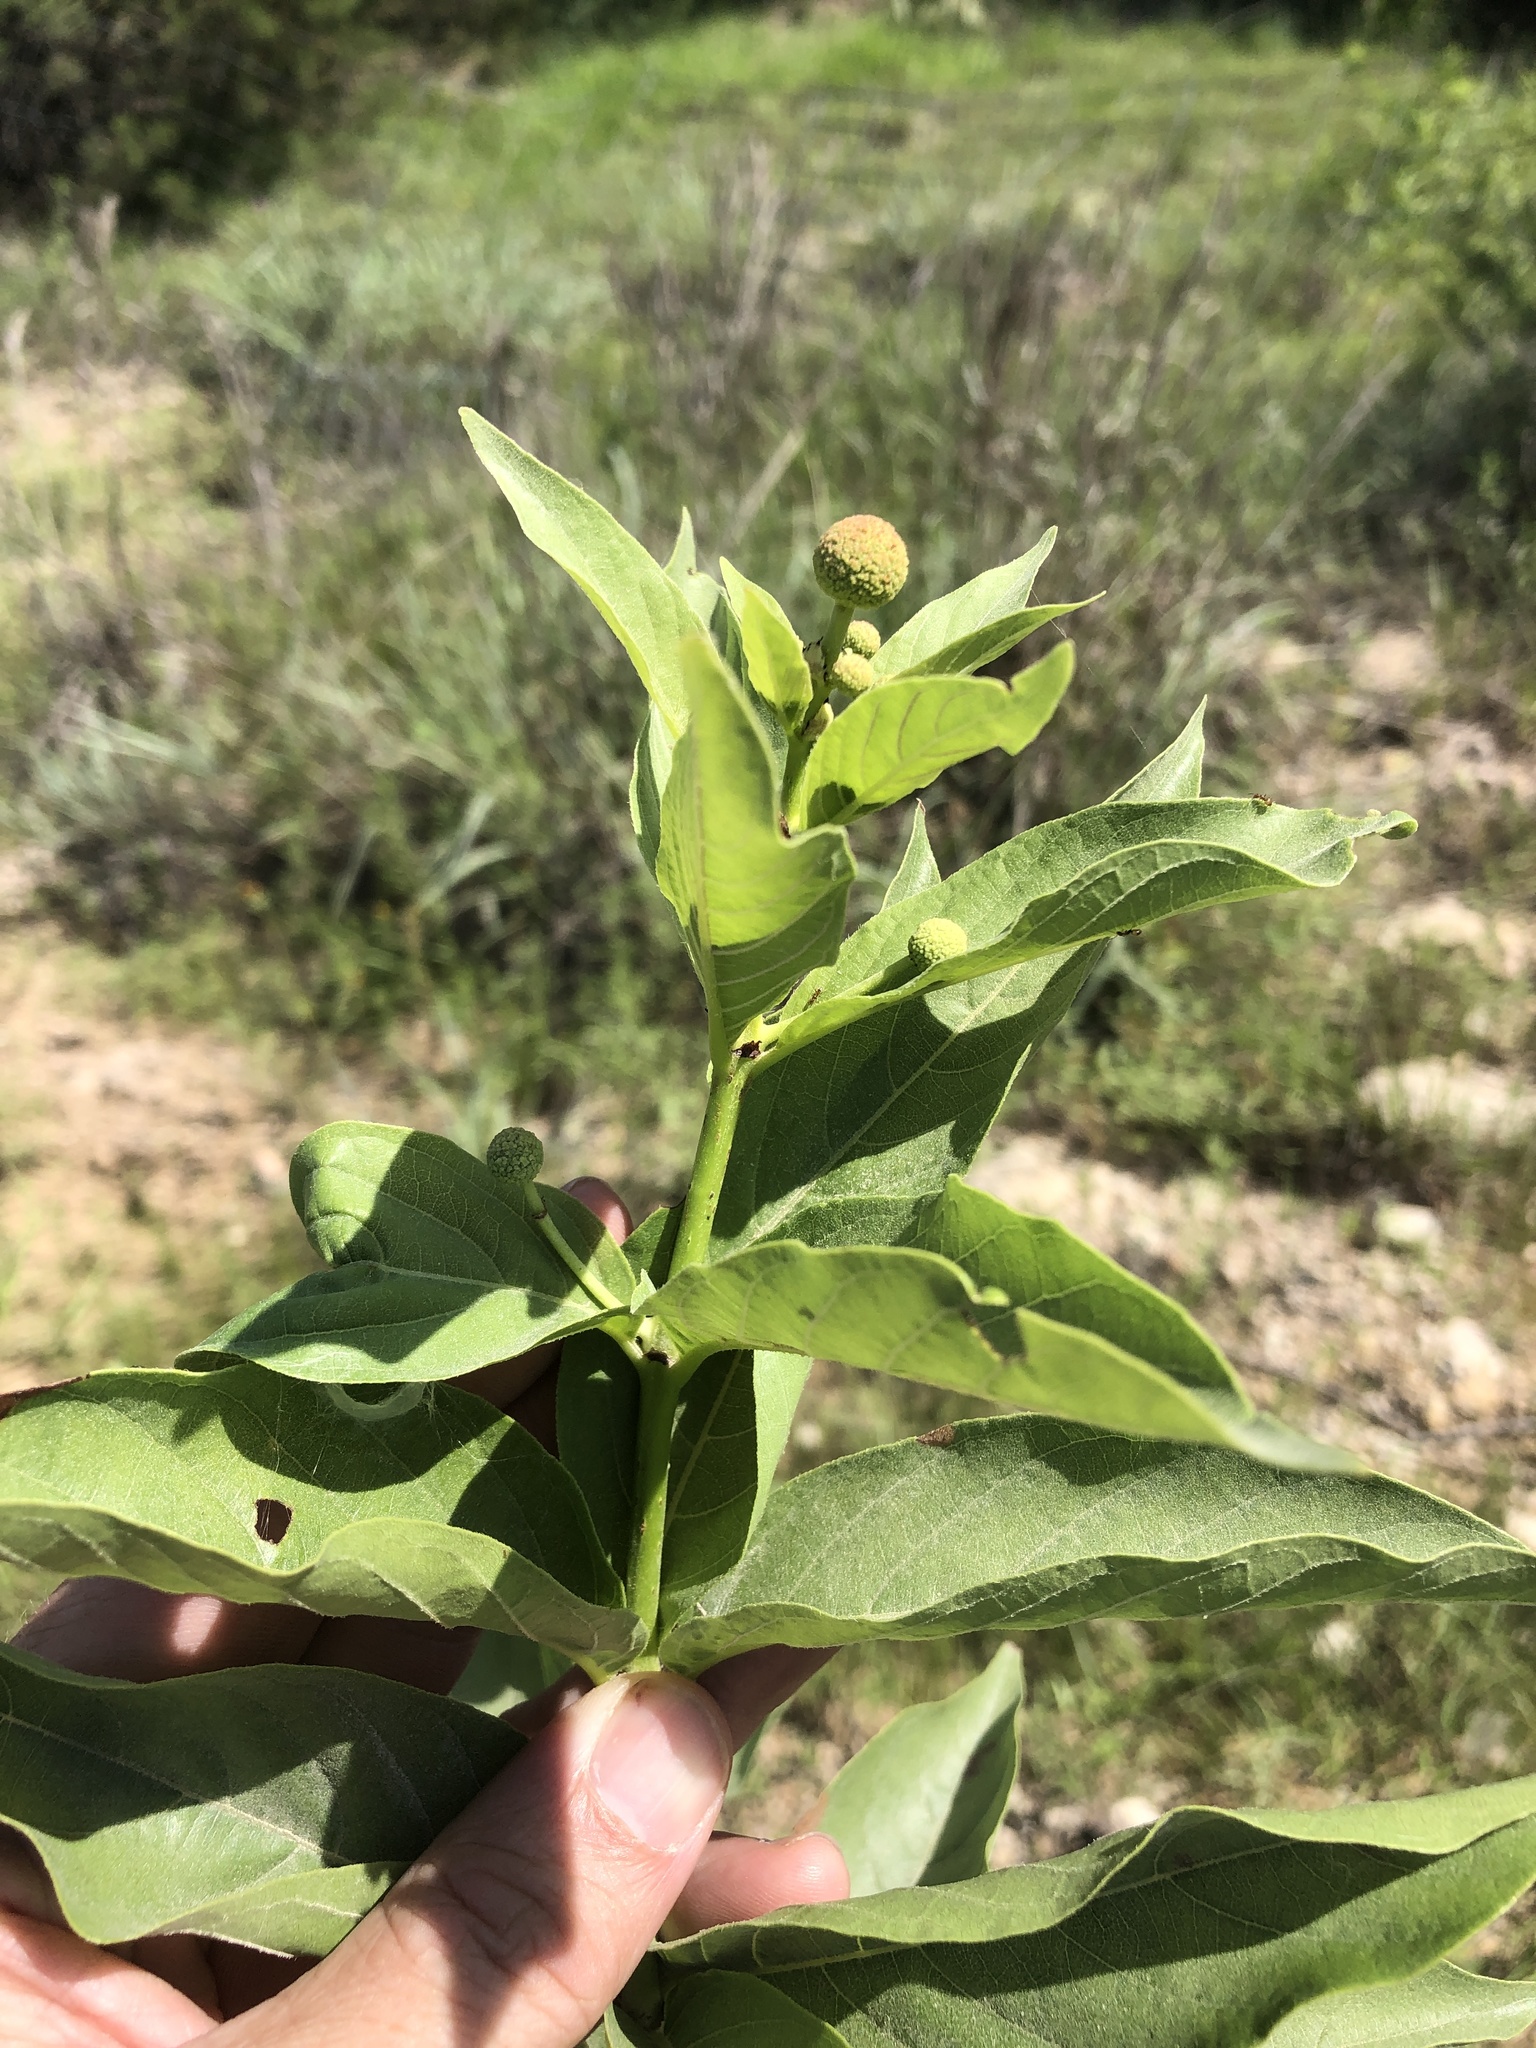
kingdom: Plantae
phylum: Tracheophyta
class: Magnoliopsida
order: Gentianales
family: Rubiaceae
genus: Cephalanthus
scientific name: Cephalanthus occidentalis
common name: Button-willow
